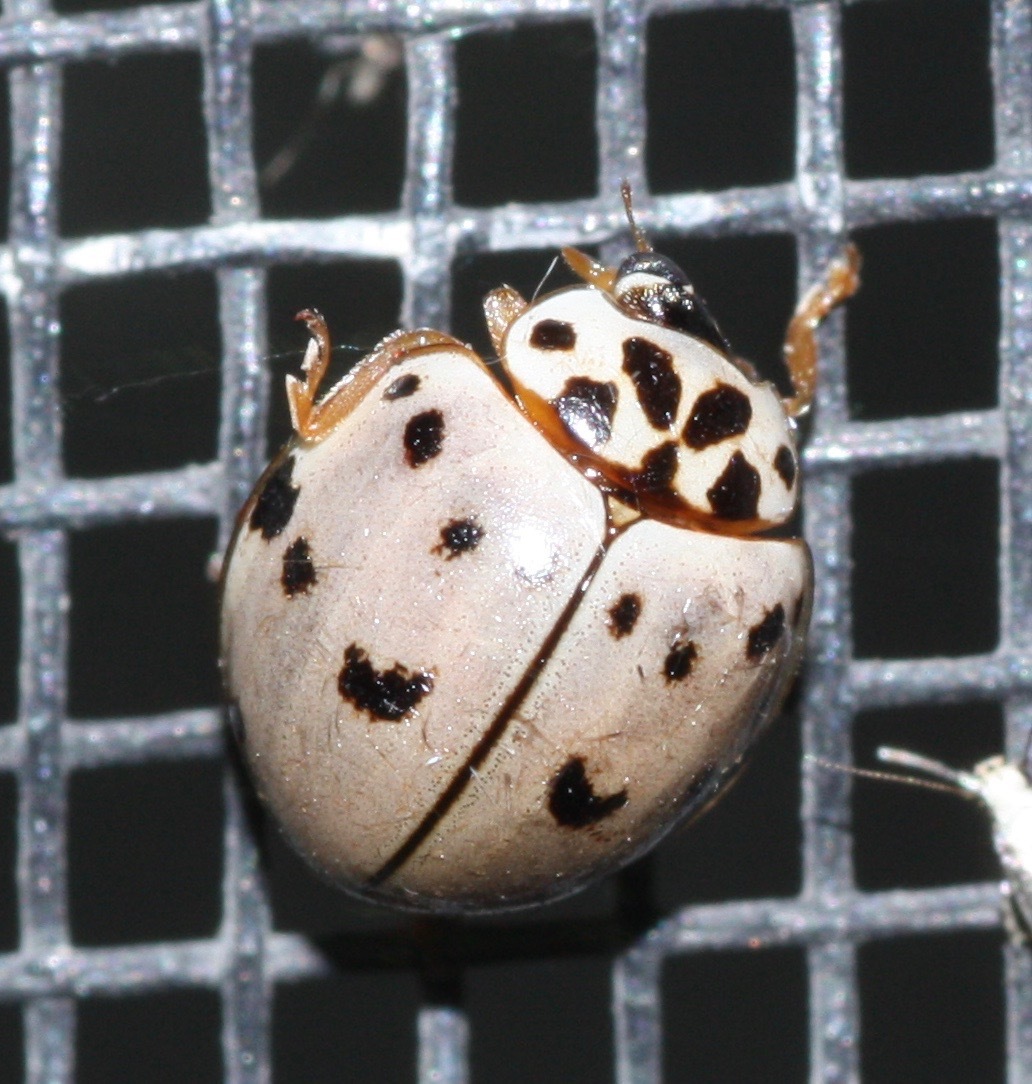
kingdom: Animalia
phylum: Arthropoda
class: Insecta
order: Coleoptera
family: Coccinellidae
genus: Olla
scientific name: Olla v-nigrum
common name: Ashy gray lady beetle
